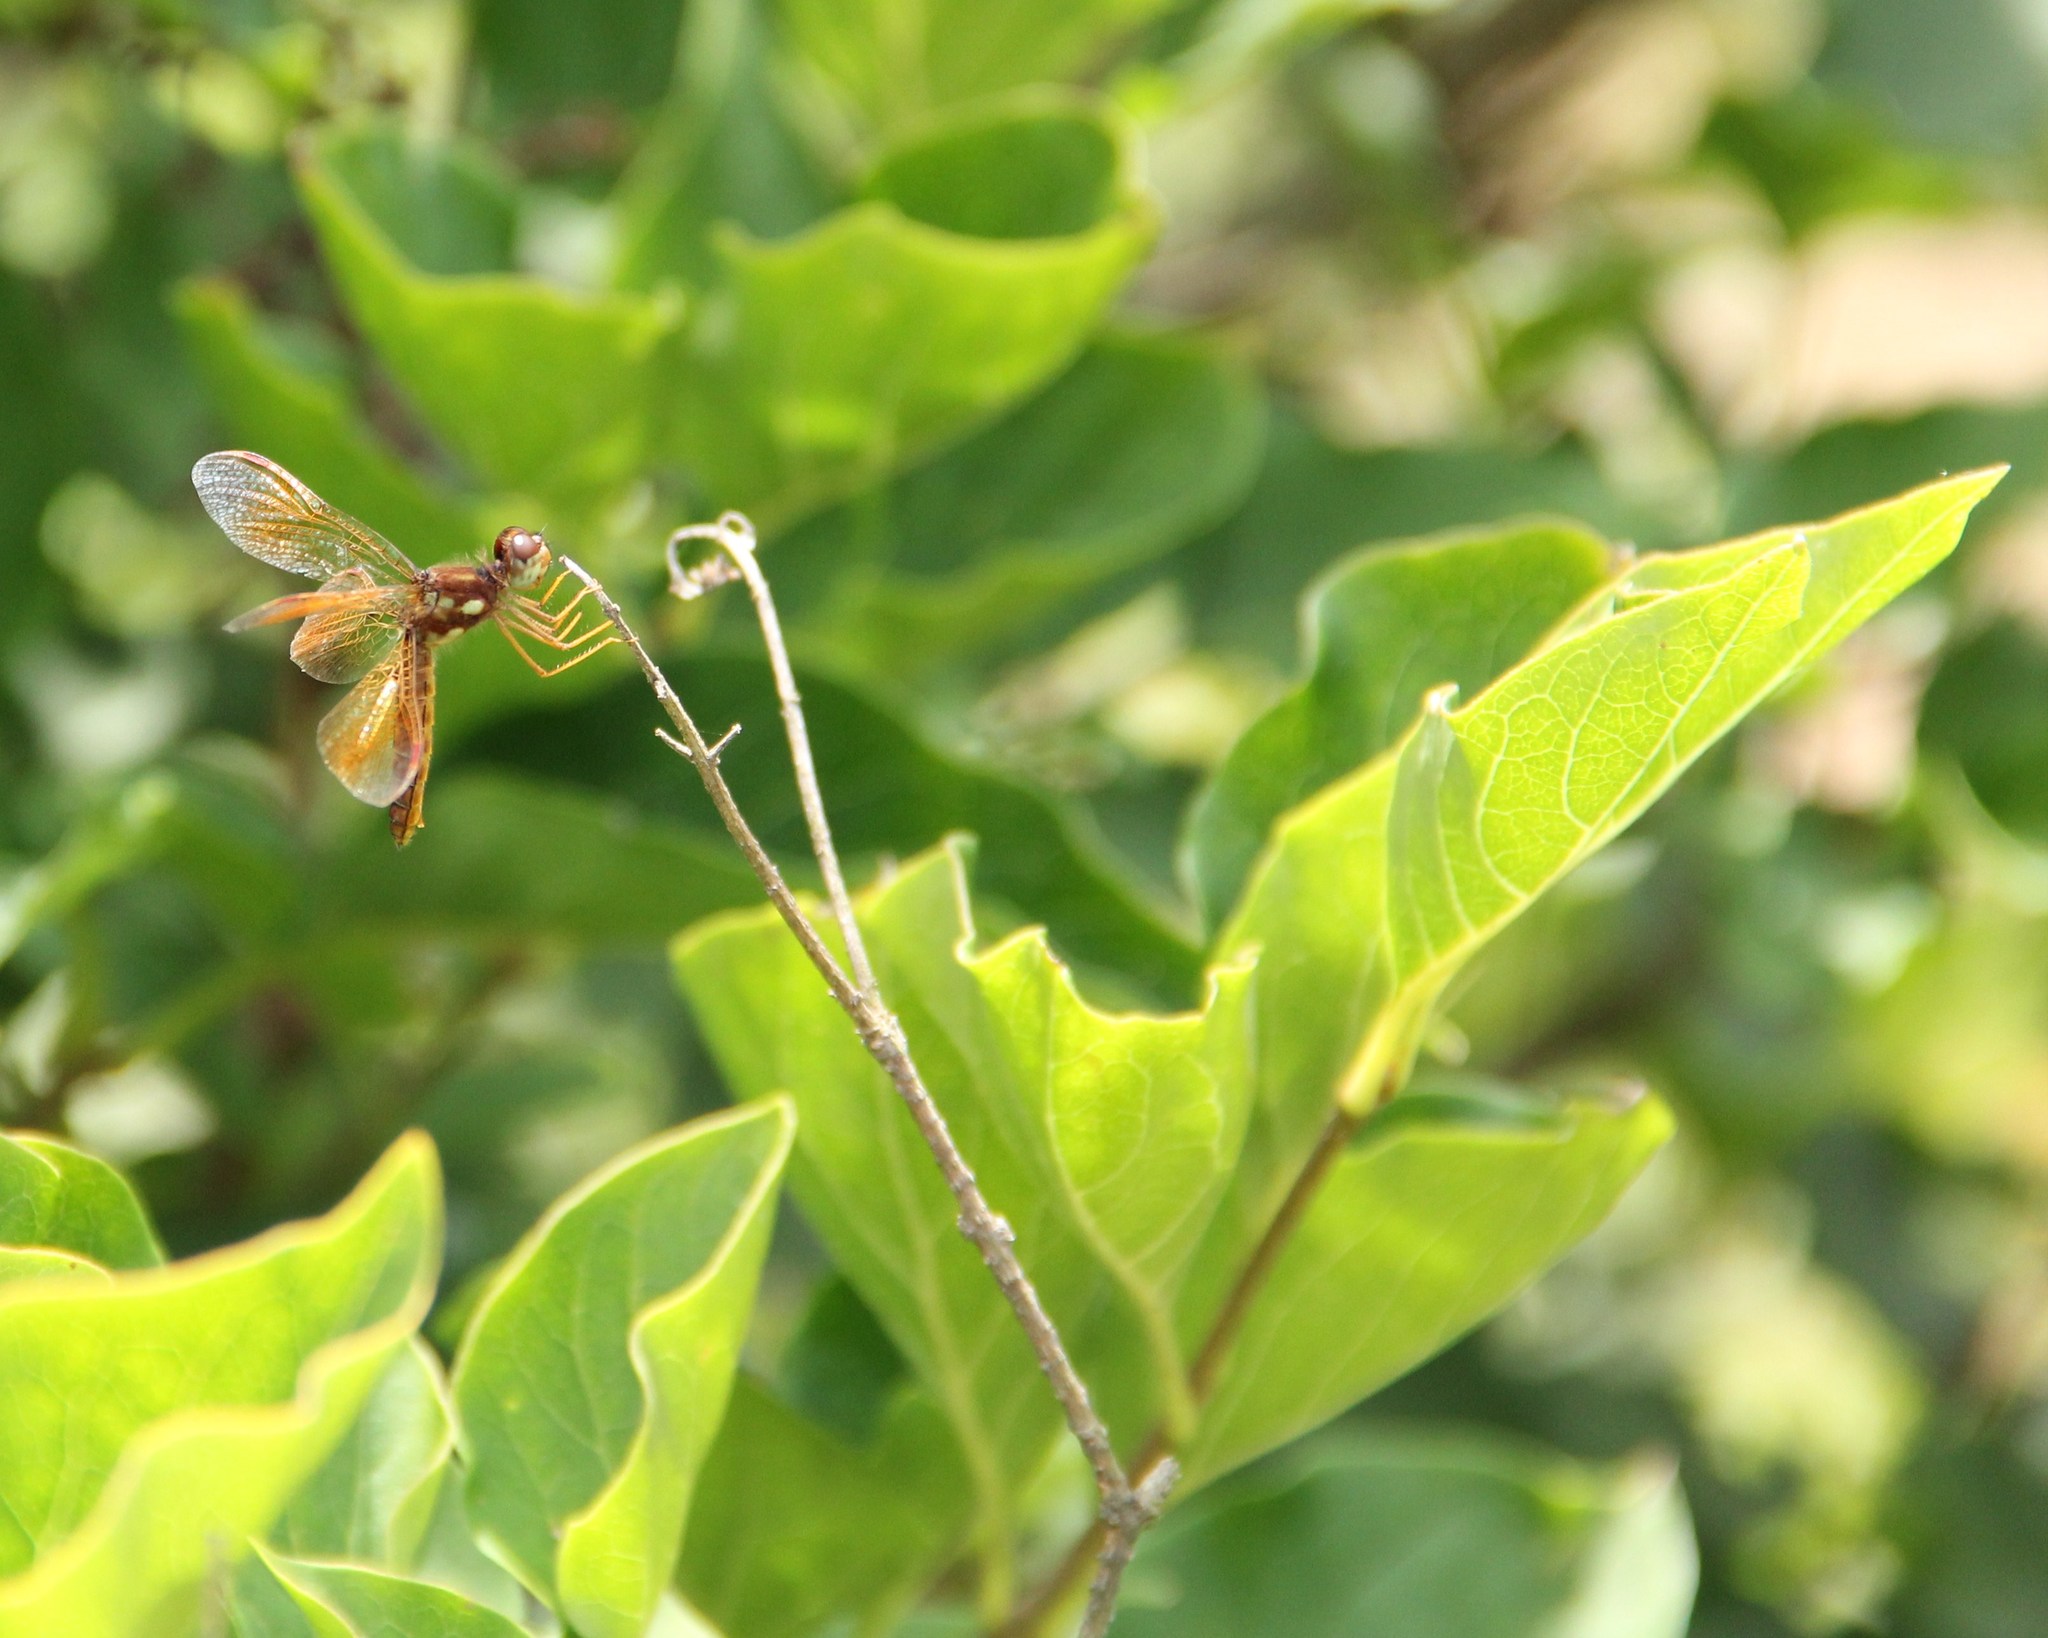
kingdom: Animalia
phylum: Arthropoda
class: Insecta
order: Odonata
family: Libellulidae
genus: Perithemis
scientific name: Perithemis tenera
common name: Eastern amberwing
